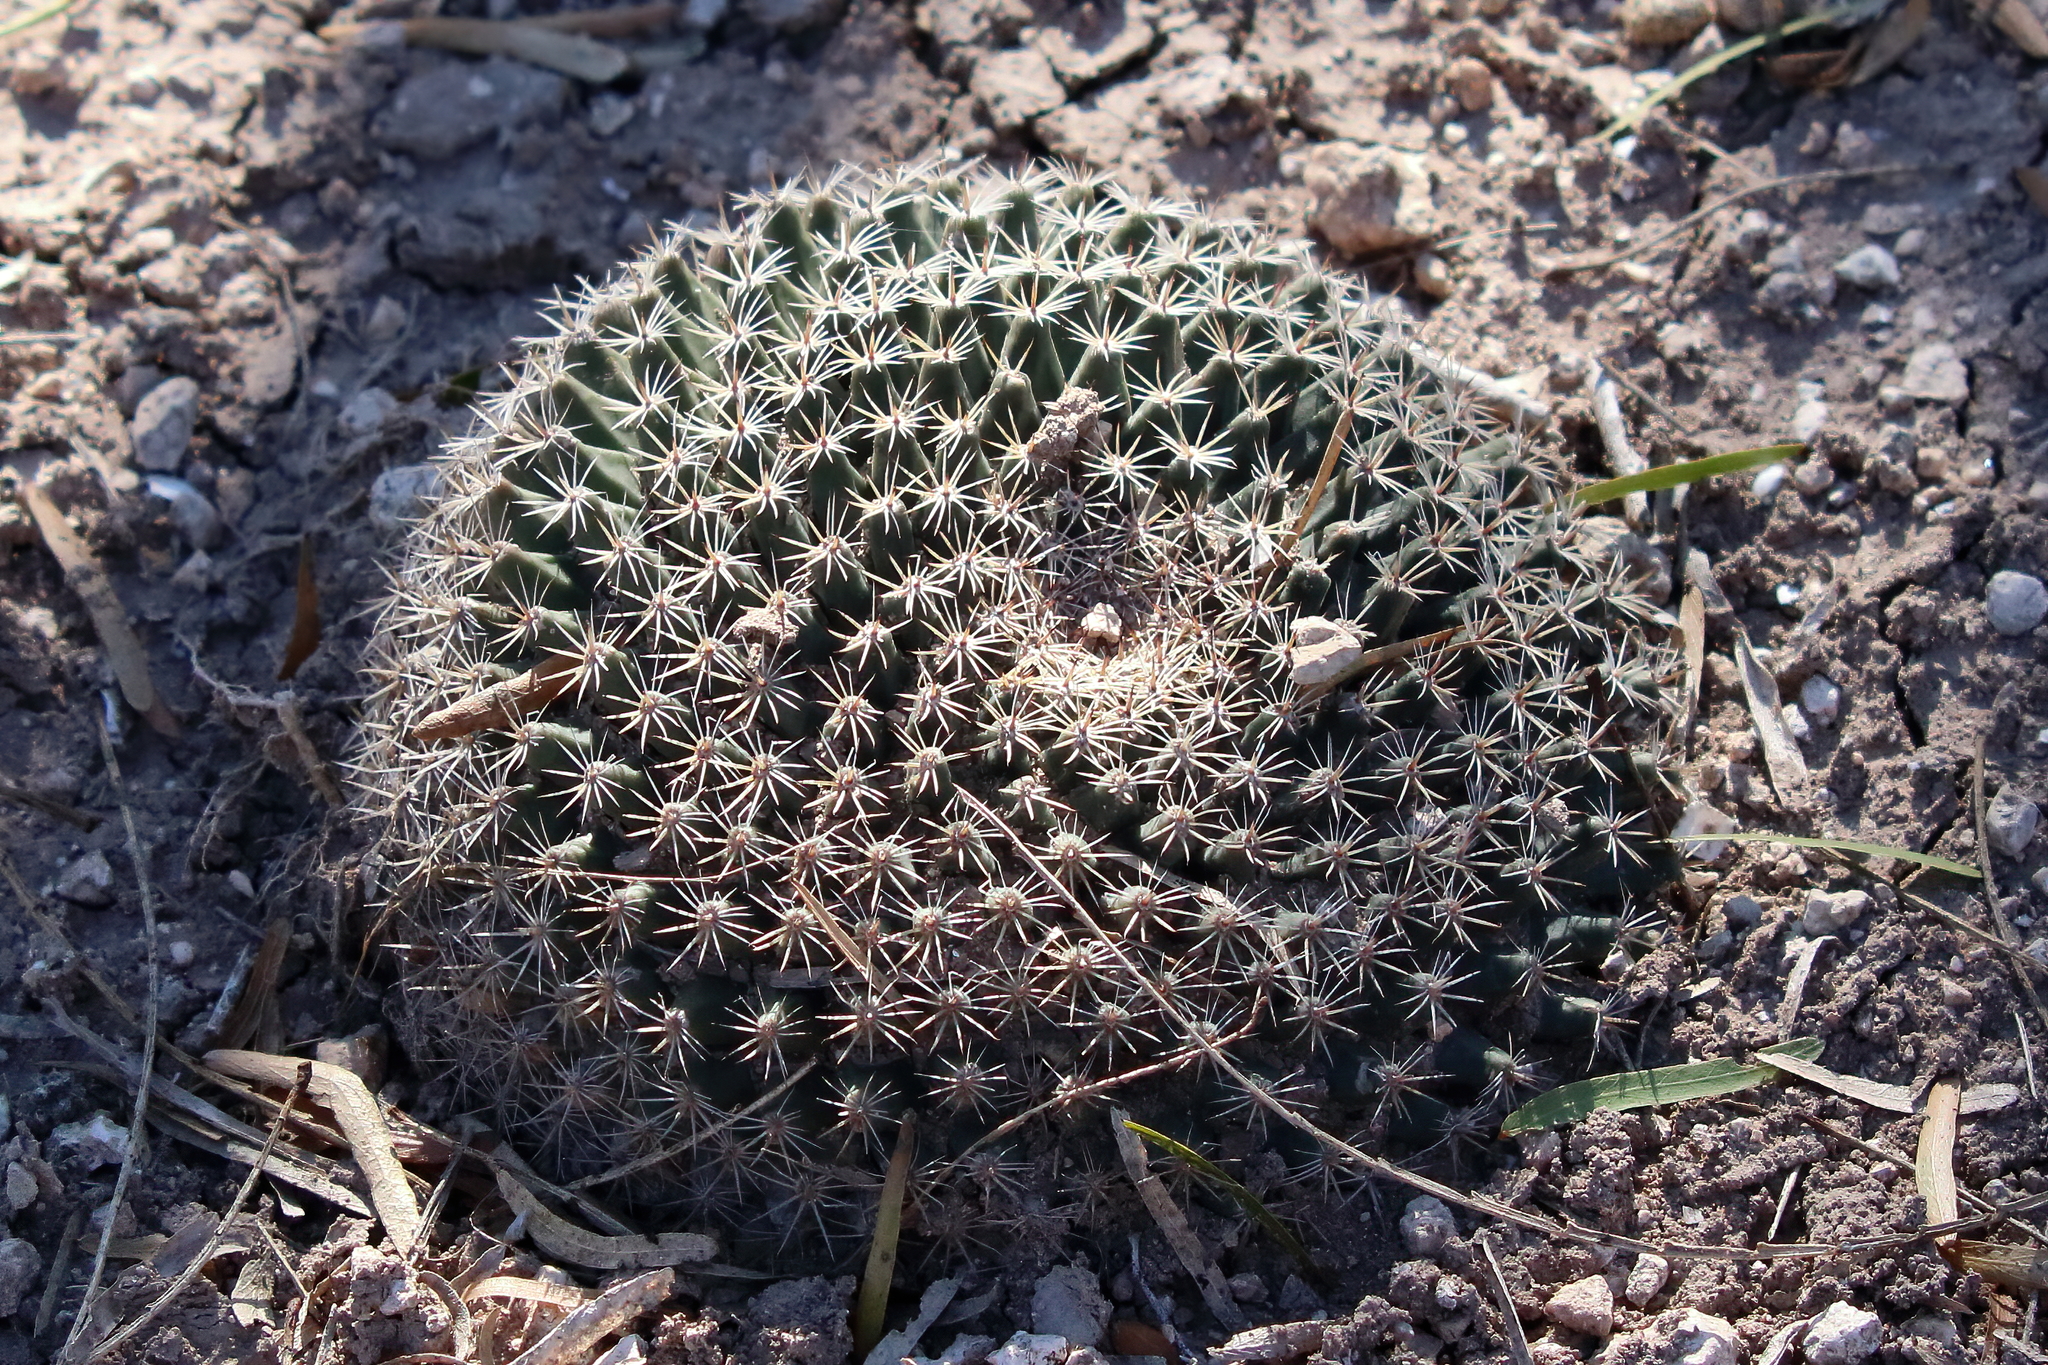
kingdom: Plantae
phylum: Tracheophyta
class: Magnoliopsida
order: Caryophyllales
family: Cactaceae
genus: Mammillaria
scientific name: Mammillaria heyderi
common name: Little nipple cactus
